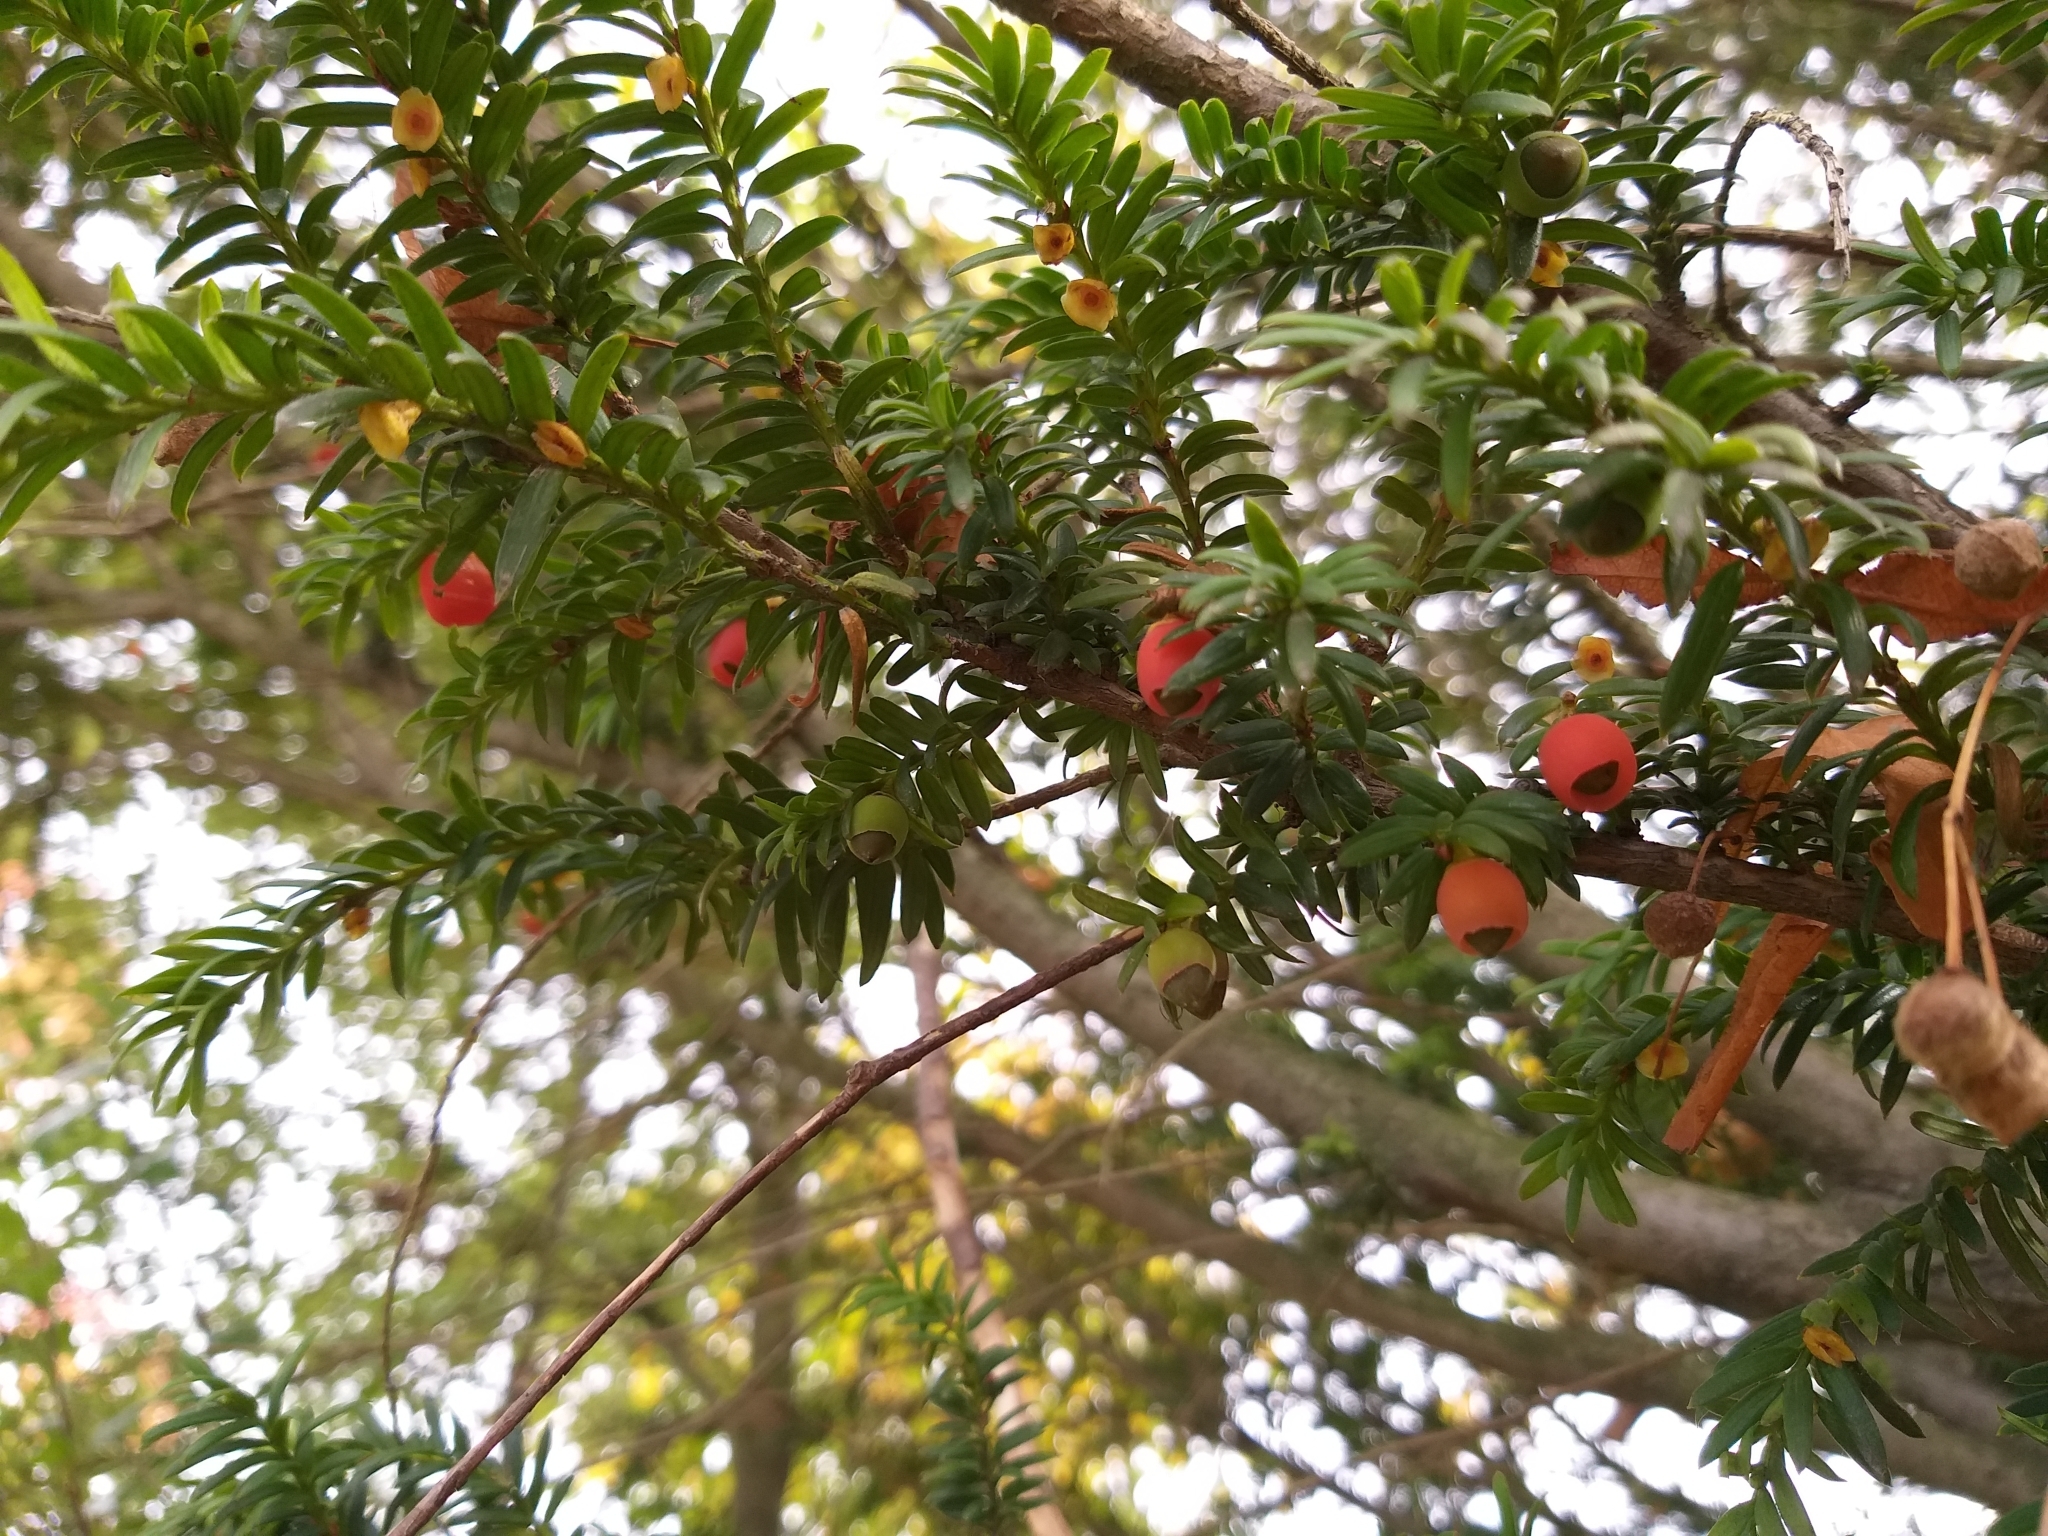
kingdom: Plantae
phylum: Tracheophyta
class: Pinopsida
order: Pinales
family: Taxaceae
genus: Taxus
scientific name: Taxus baccata
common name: Yew
